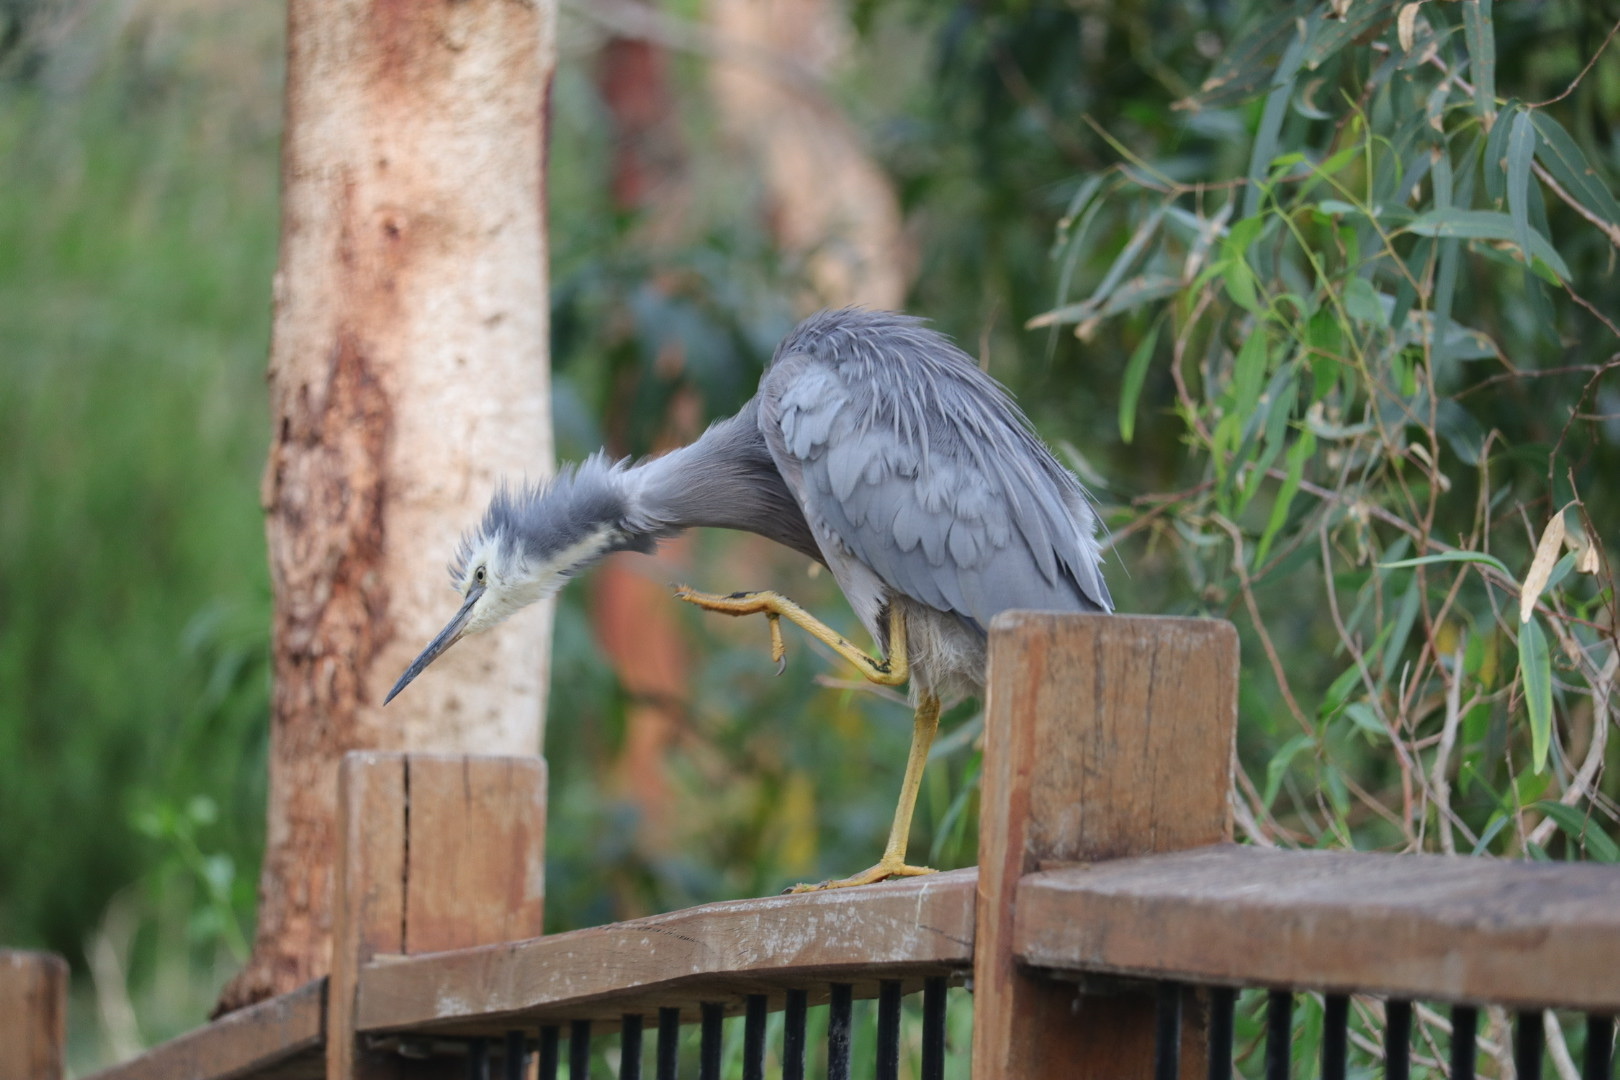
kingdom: Animalia
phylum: Chordata
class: Aves
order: Pelecaniformes
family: Ardeidae
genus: Egretta
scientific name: Egretta novaehollandiae
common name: White-faced heron
